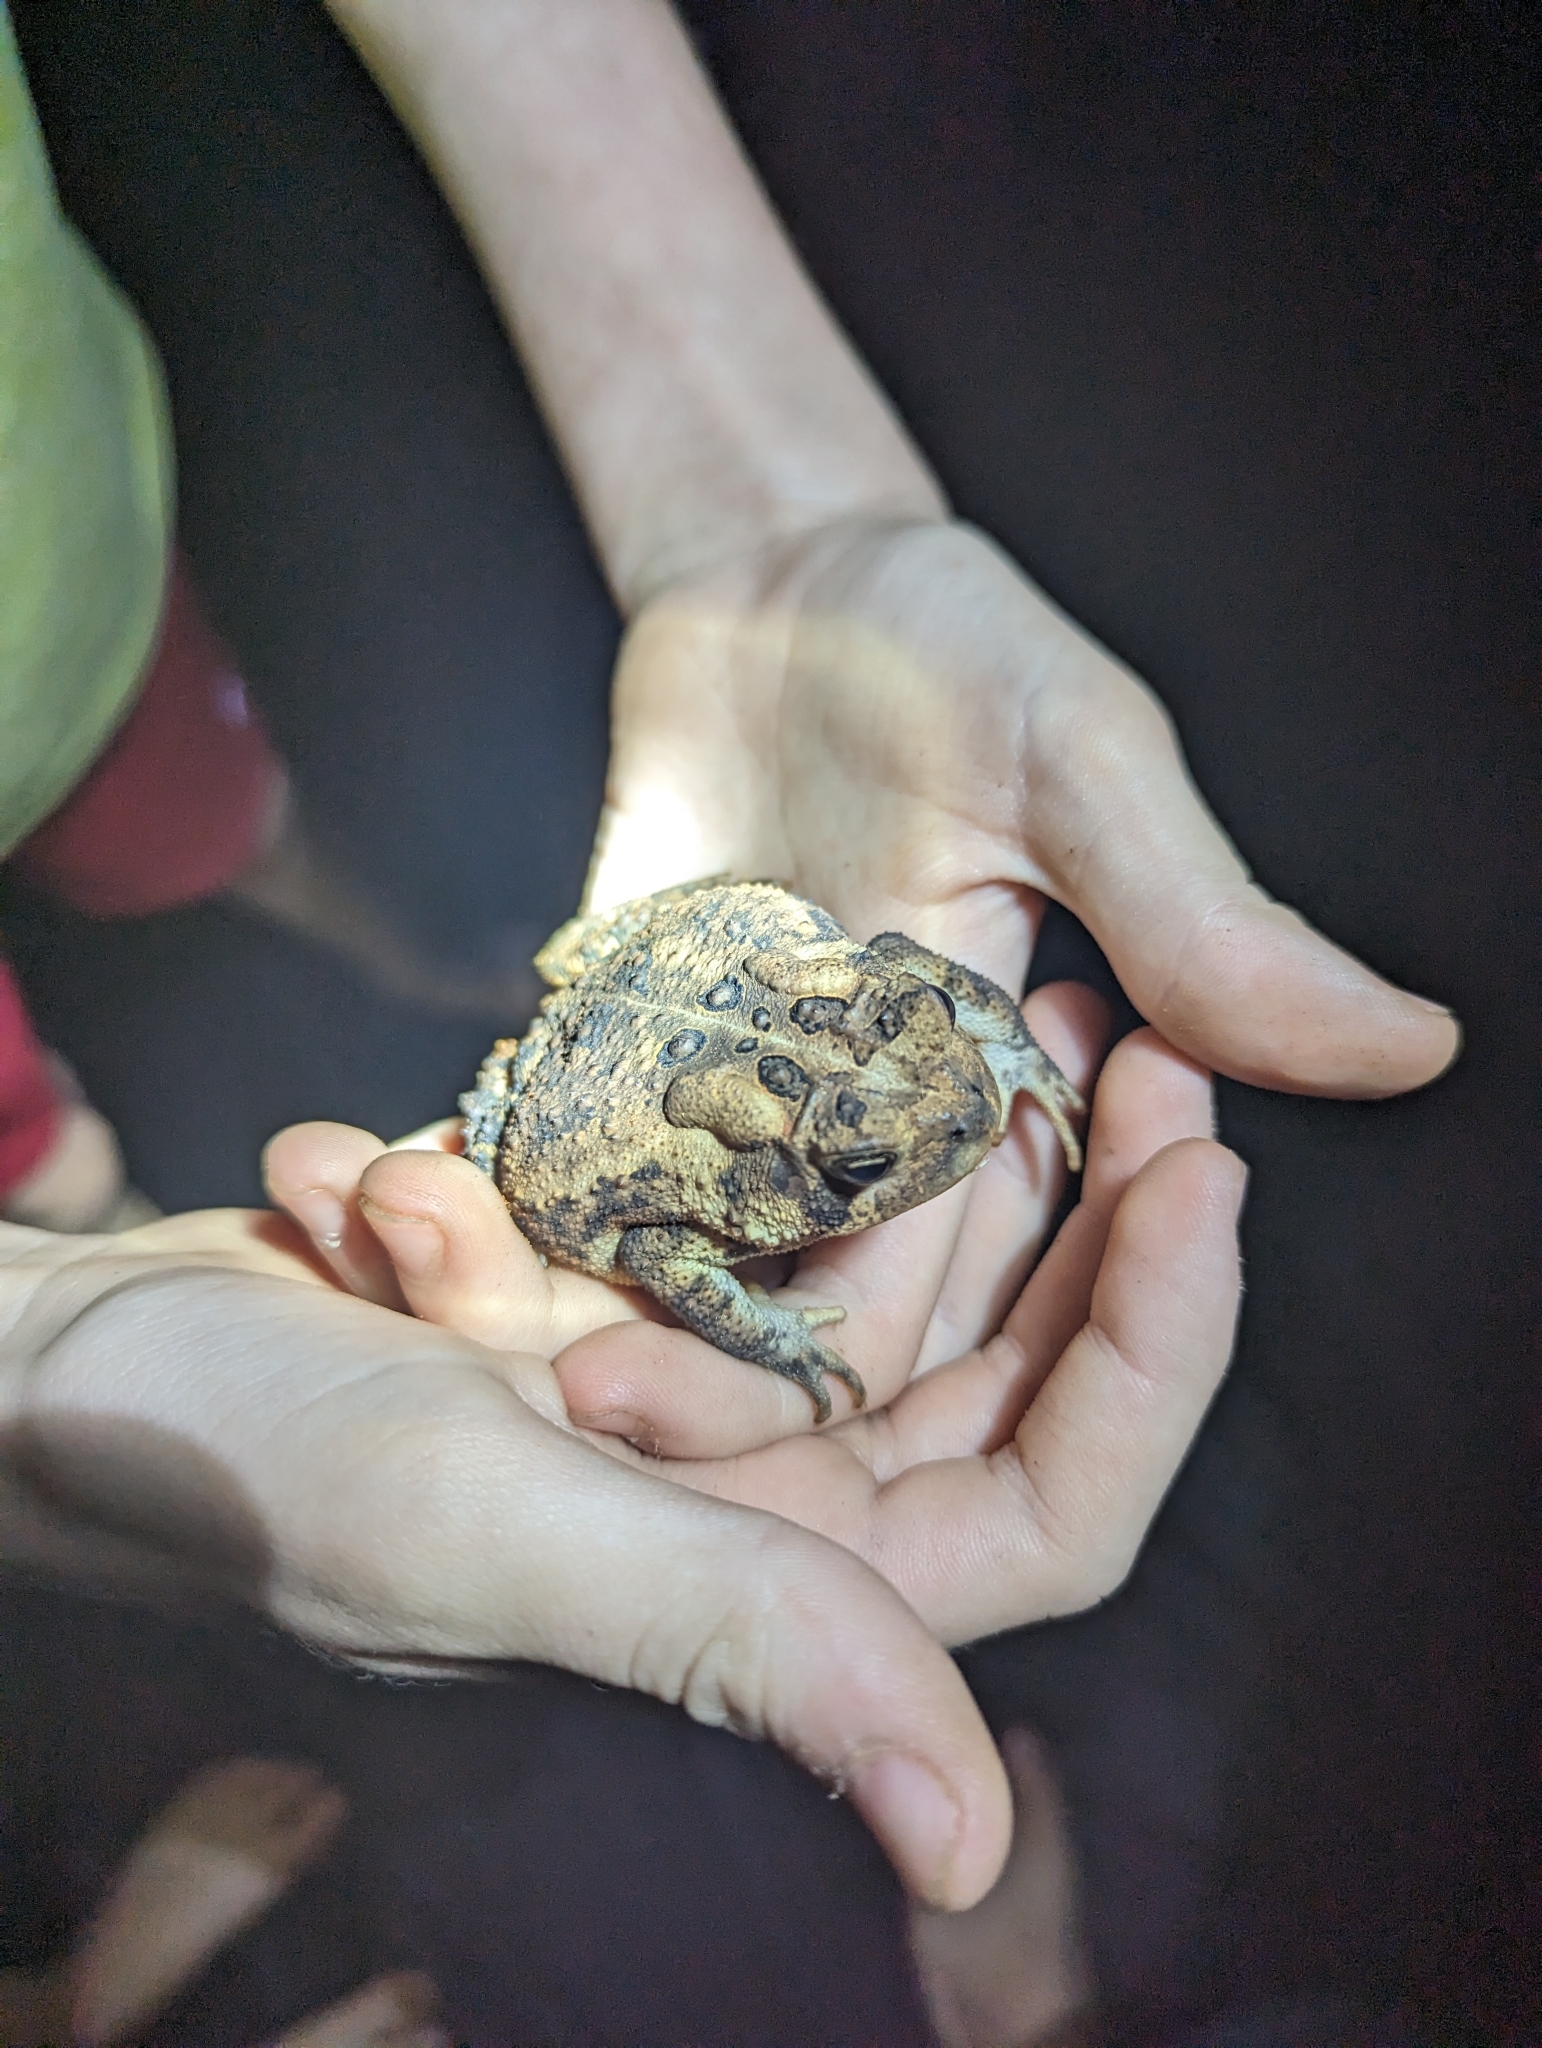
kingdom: Animalia
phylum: Chordata
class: Amphibia
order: Anura
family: Bufonidae
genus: Anaxyrus
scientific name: Anaxyrus americanus
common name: American toad
